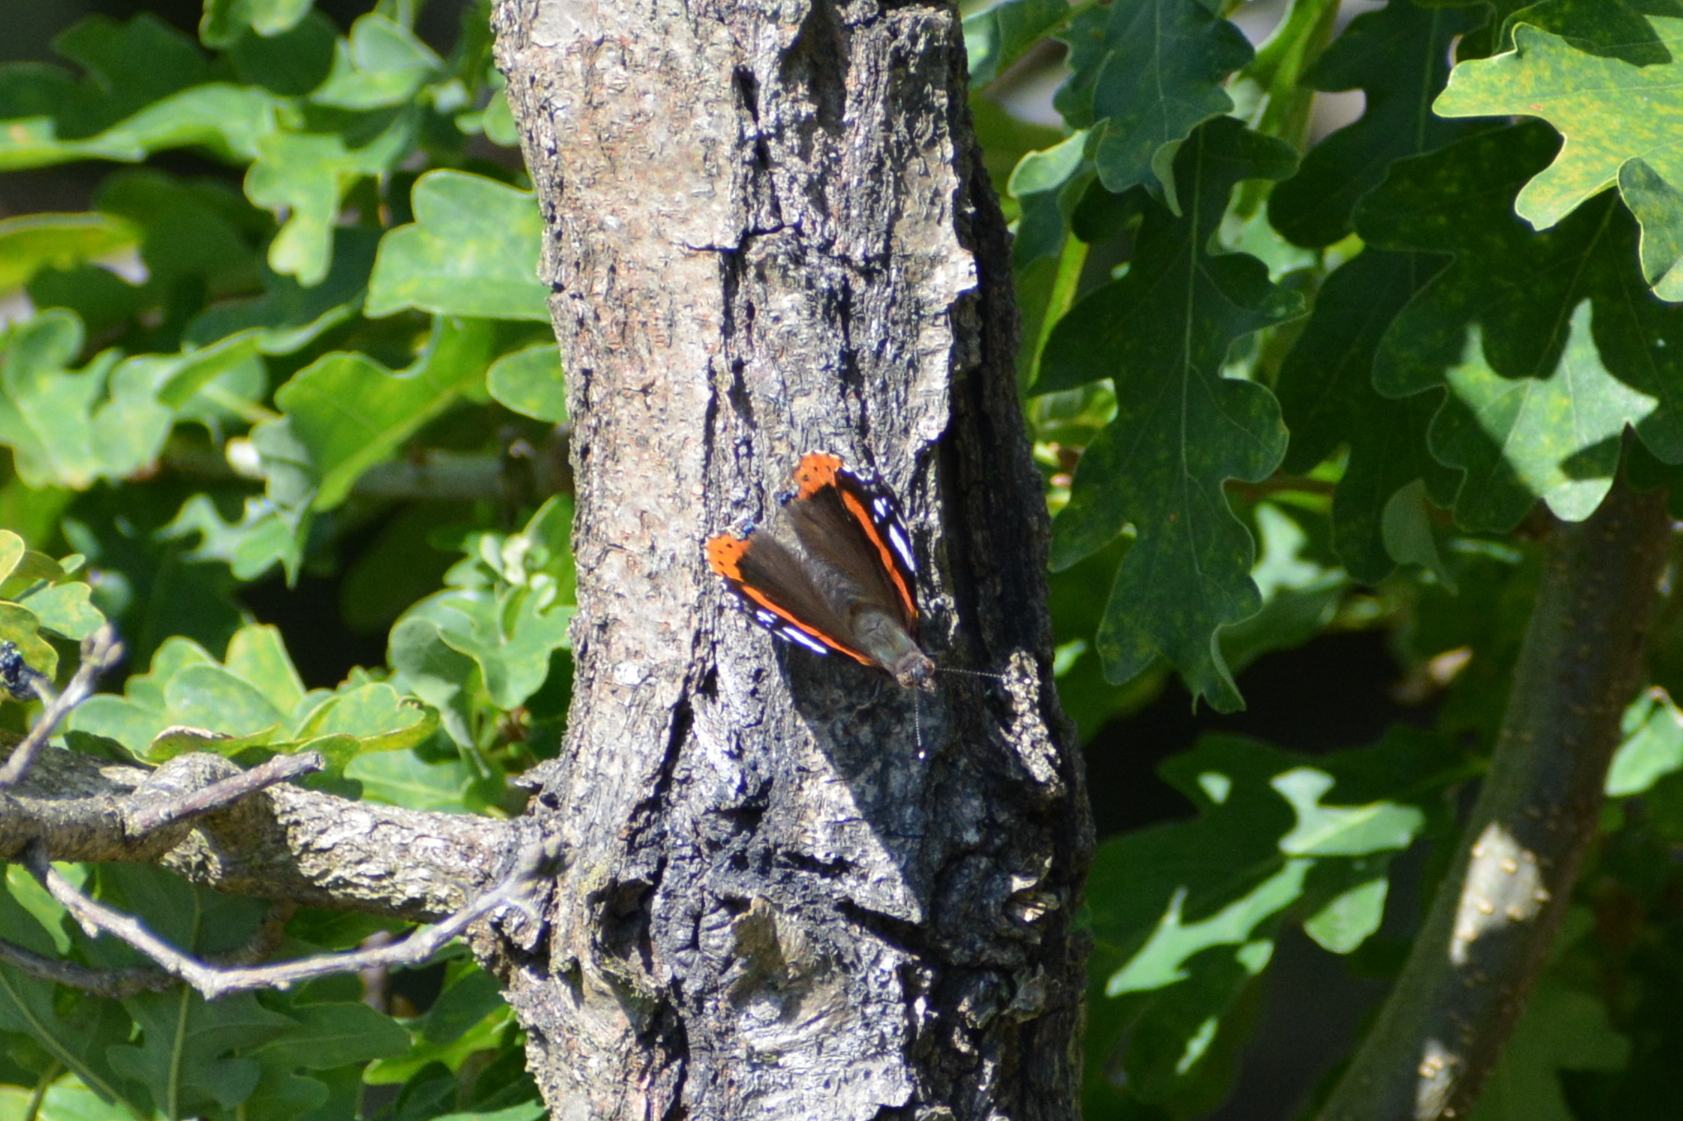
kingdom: Animalia
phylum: Arthropoda
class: Insecta
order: Lepidoptera
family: Nymphalidae
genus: Vanessa
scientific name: Vanessa atalanta
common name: Red admiral
